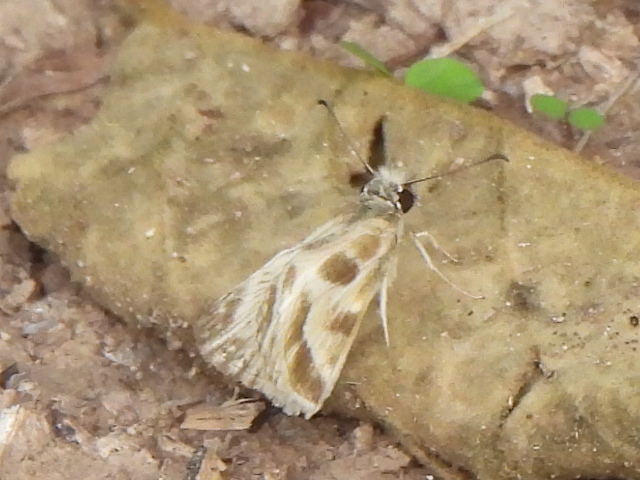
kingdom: Animalia
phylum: Arthropoda
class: Insecta
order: Lepidoptera
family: Hesperiidae
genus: Heliopetes
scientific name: Heliopetes macaira
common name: Turk's-cap white-skipper
